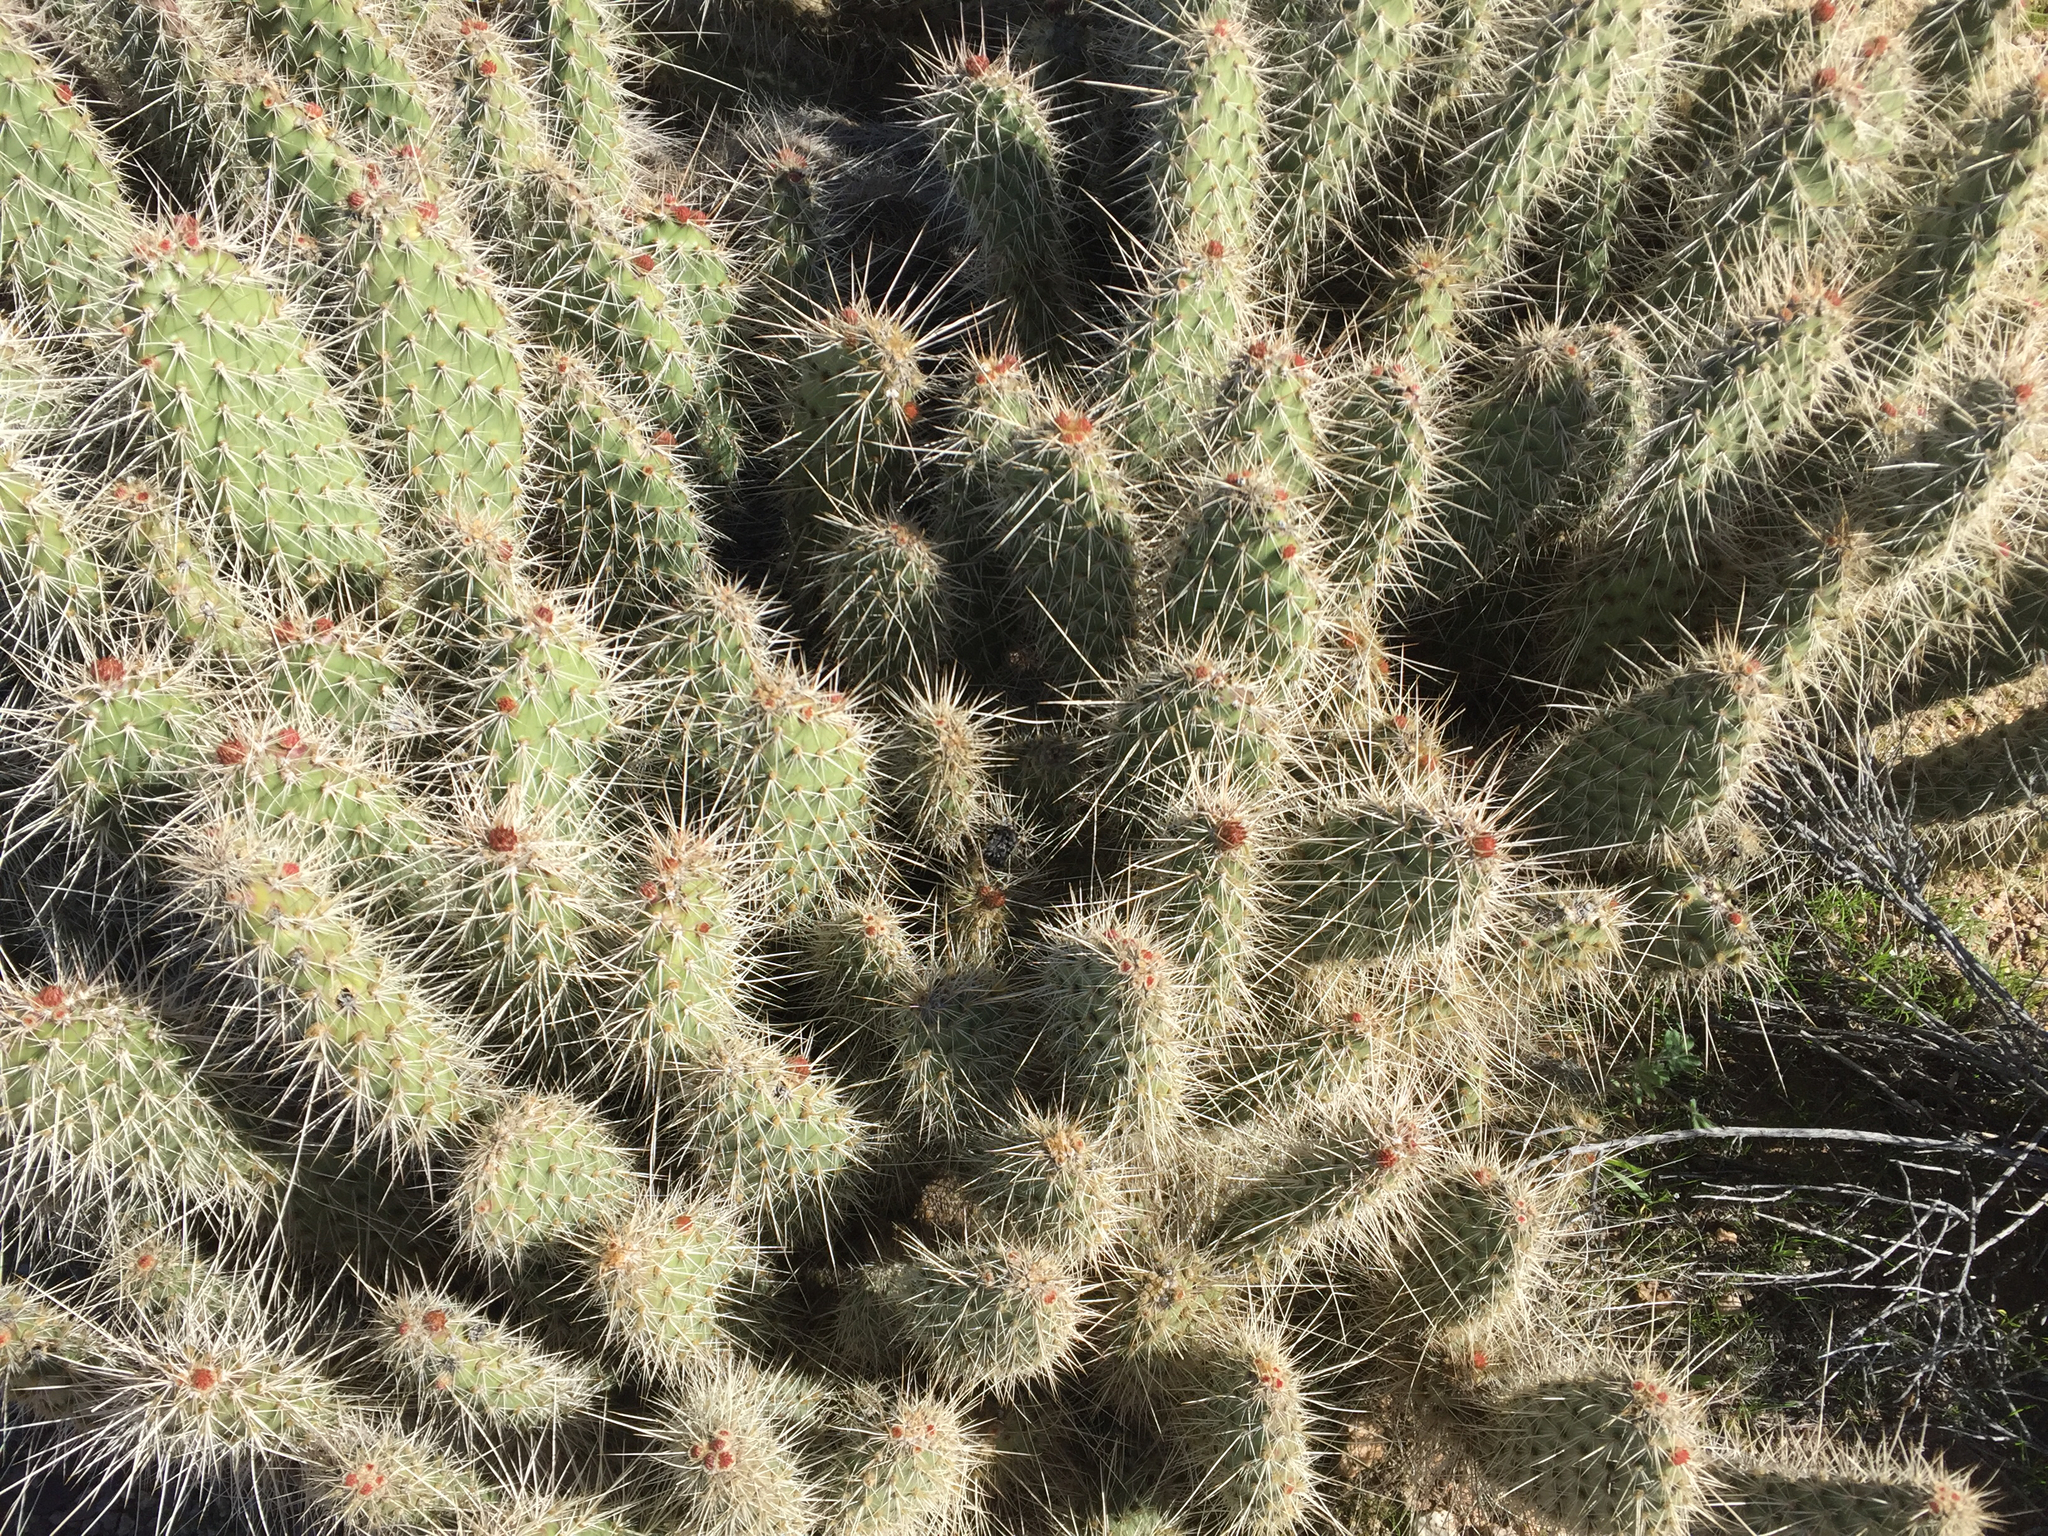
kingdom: Plantae
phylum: Tracheophyta
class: Magnoliopsida
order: Caryophyllales
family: Cactaceae
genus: Opuntia
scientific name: Opuntia polyacantha
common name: Plains prickly-pear
